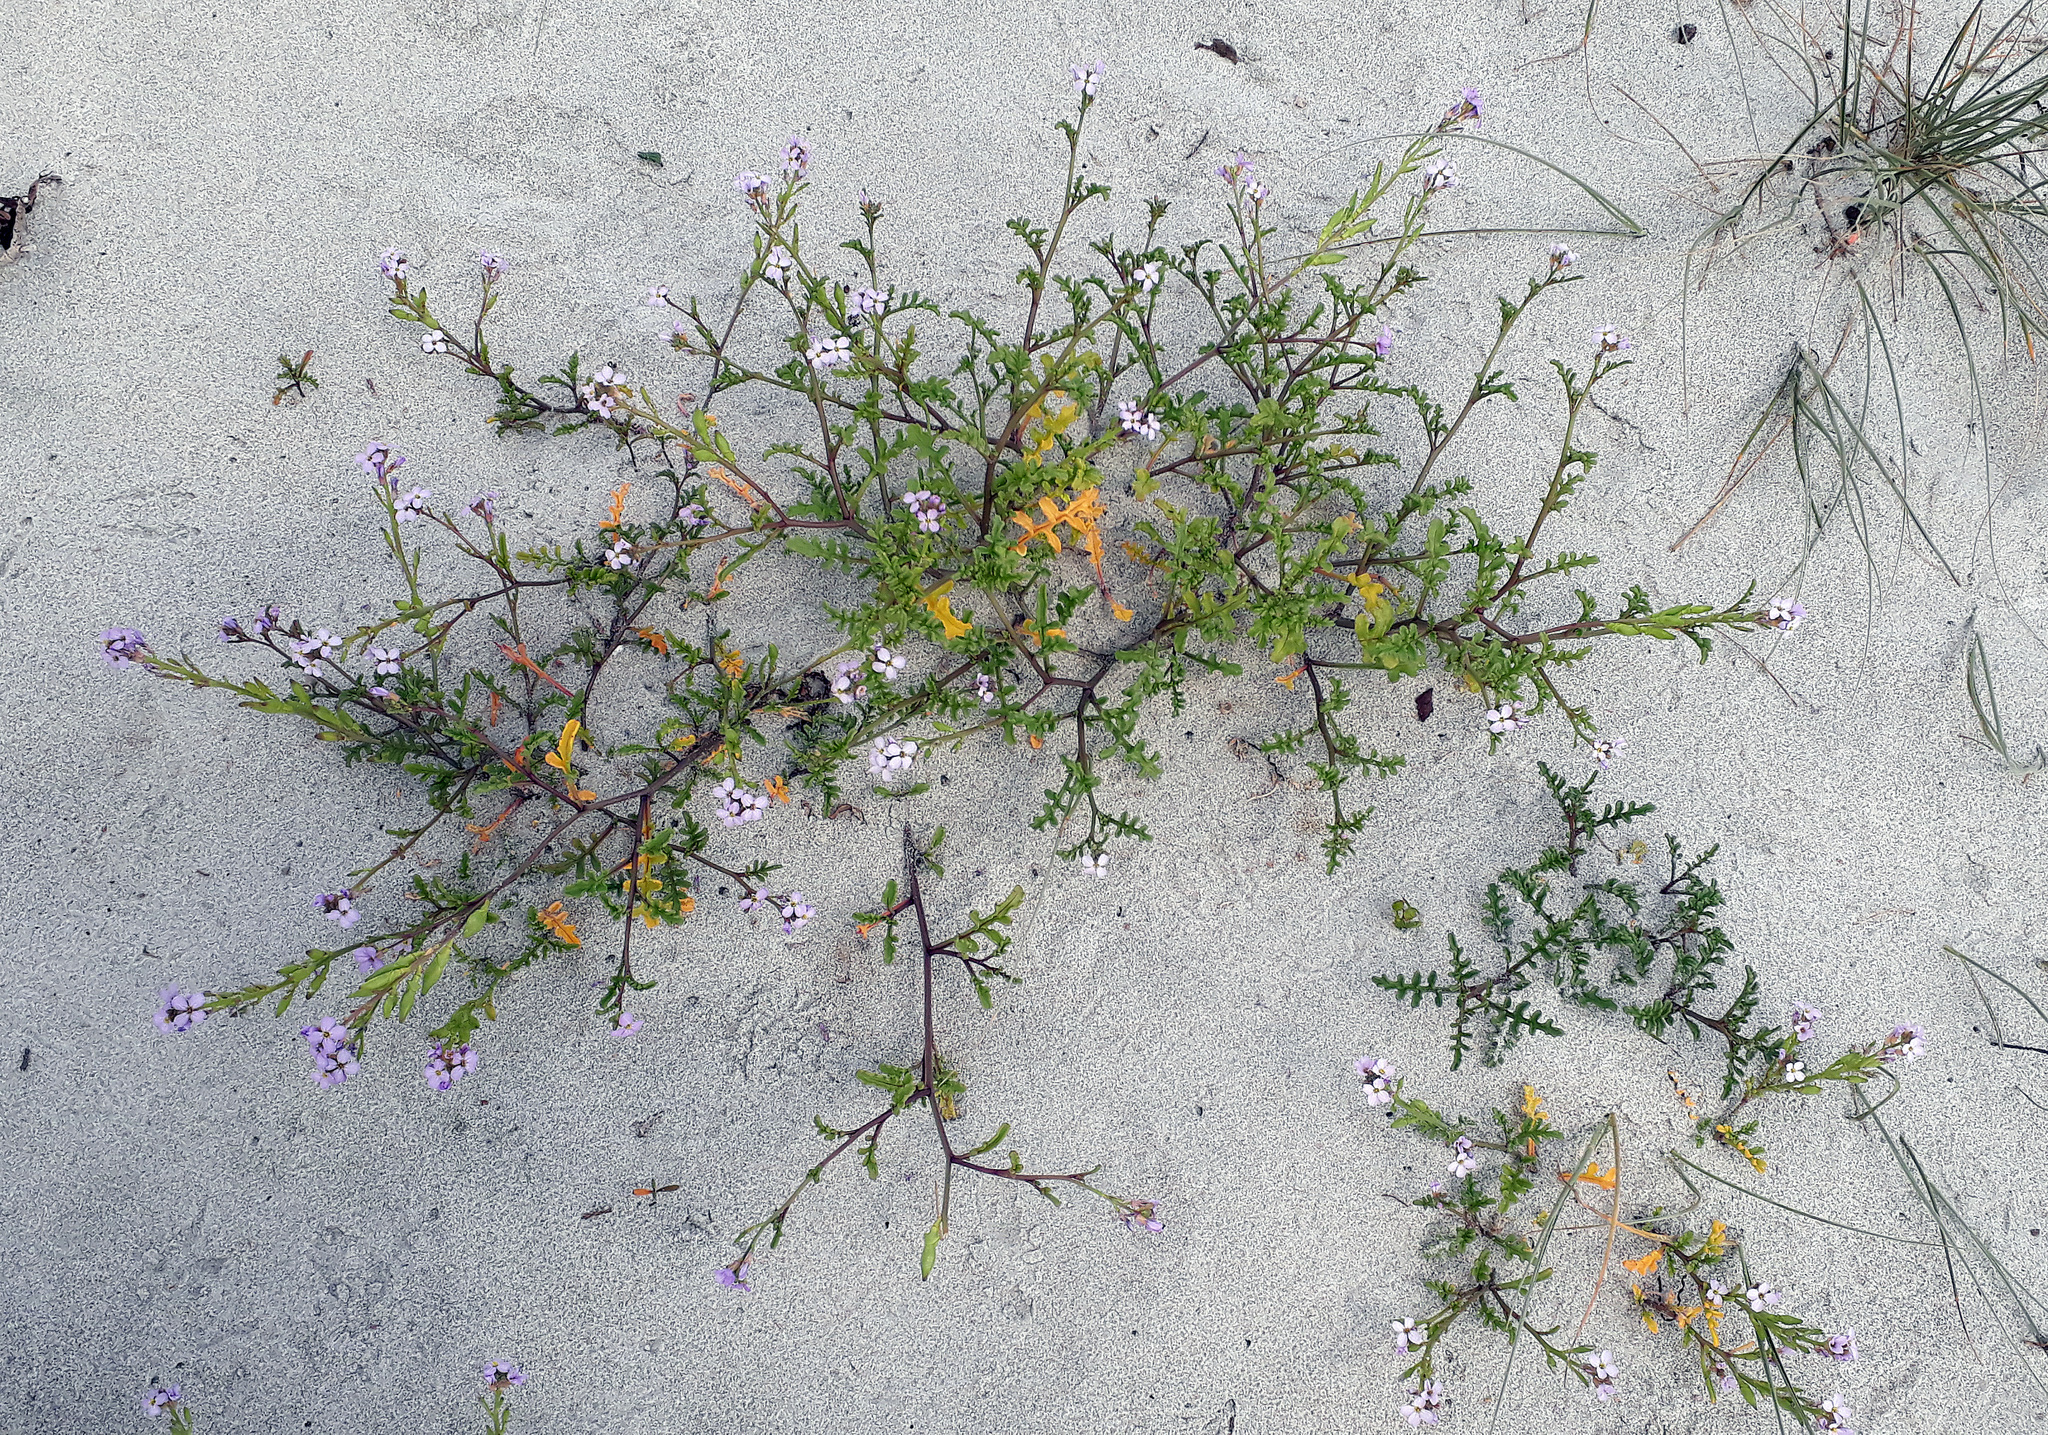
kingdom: Plantae
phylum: Tracheophyta
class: Magnoliopsida
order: Brassicales
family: Brassicaceae
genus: Cakile
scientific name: Cakile maritima
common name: Sea rocket
